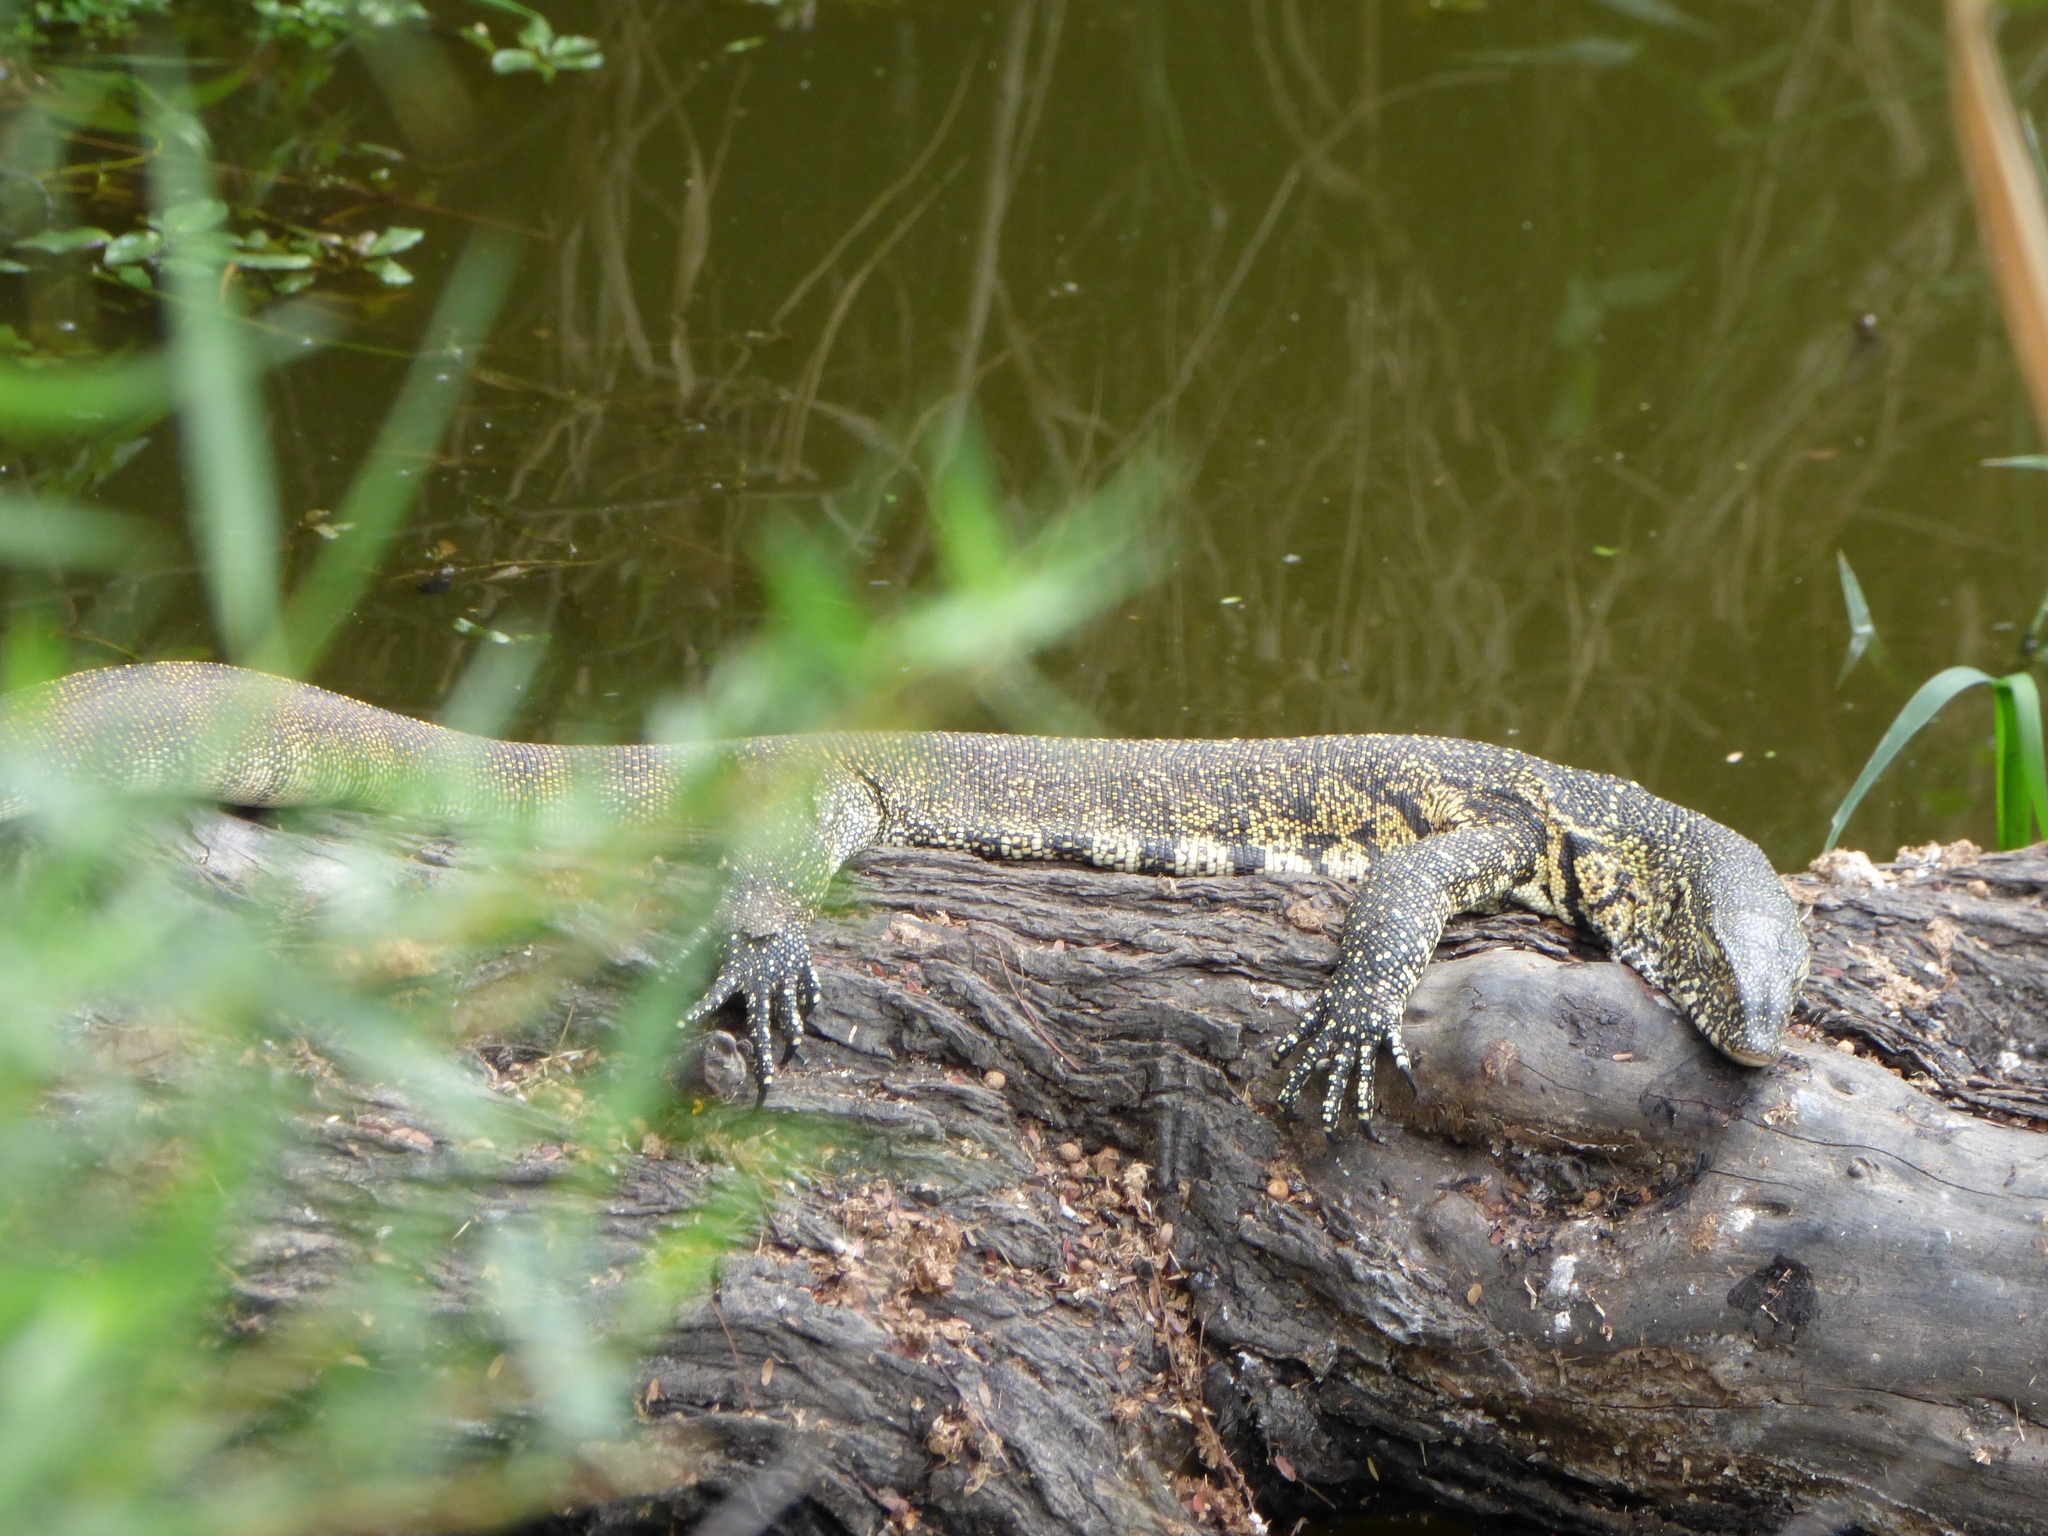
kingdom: Animalia
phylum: Chordata
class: Squamata
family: Varanidae
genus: Varanus
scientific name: Varanus niloticus
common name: Nile monitor
